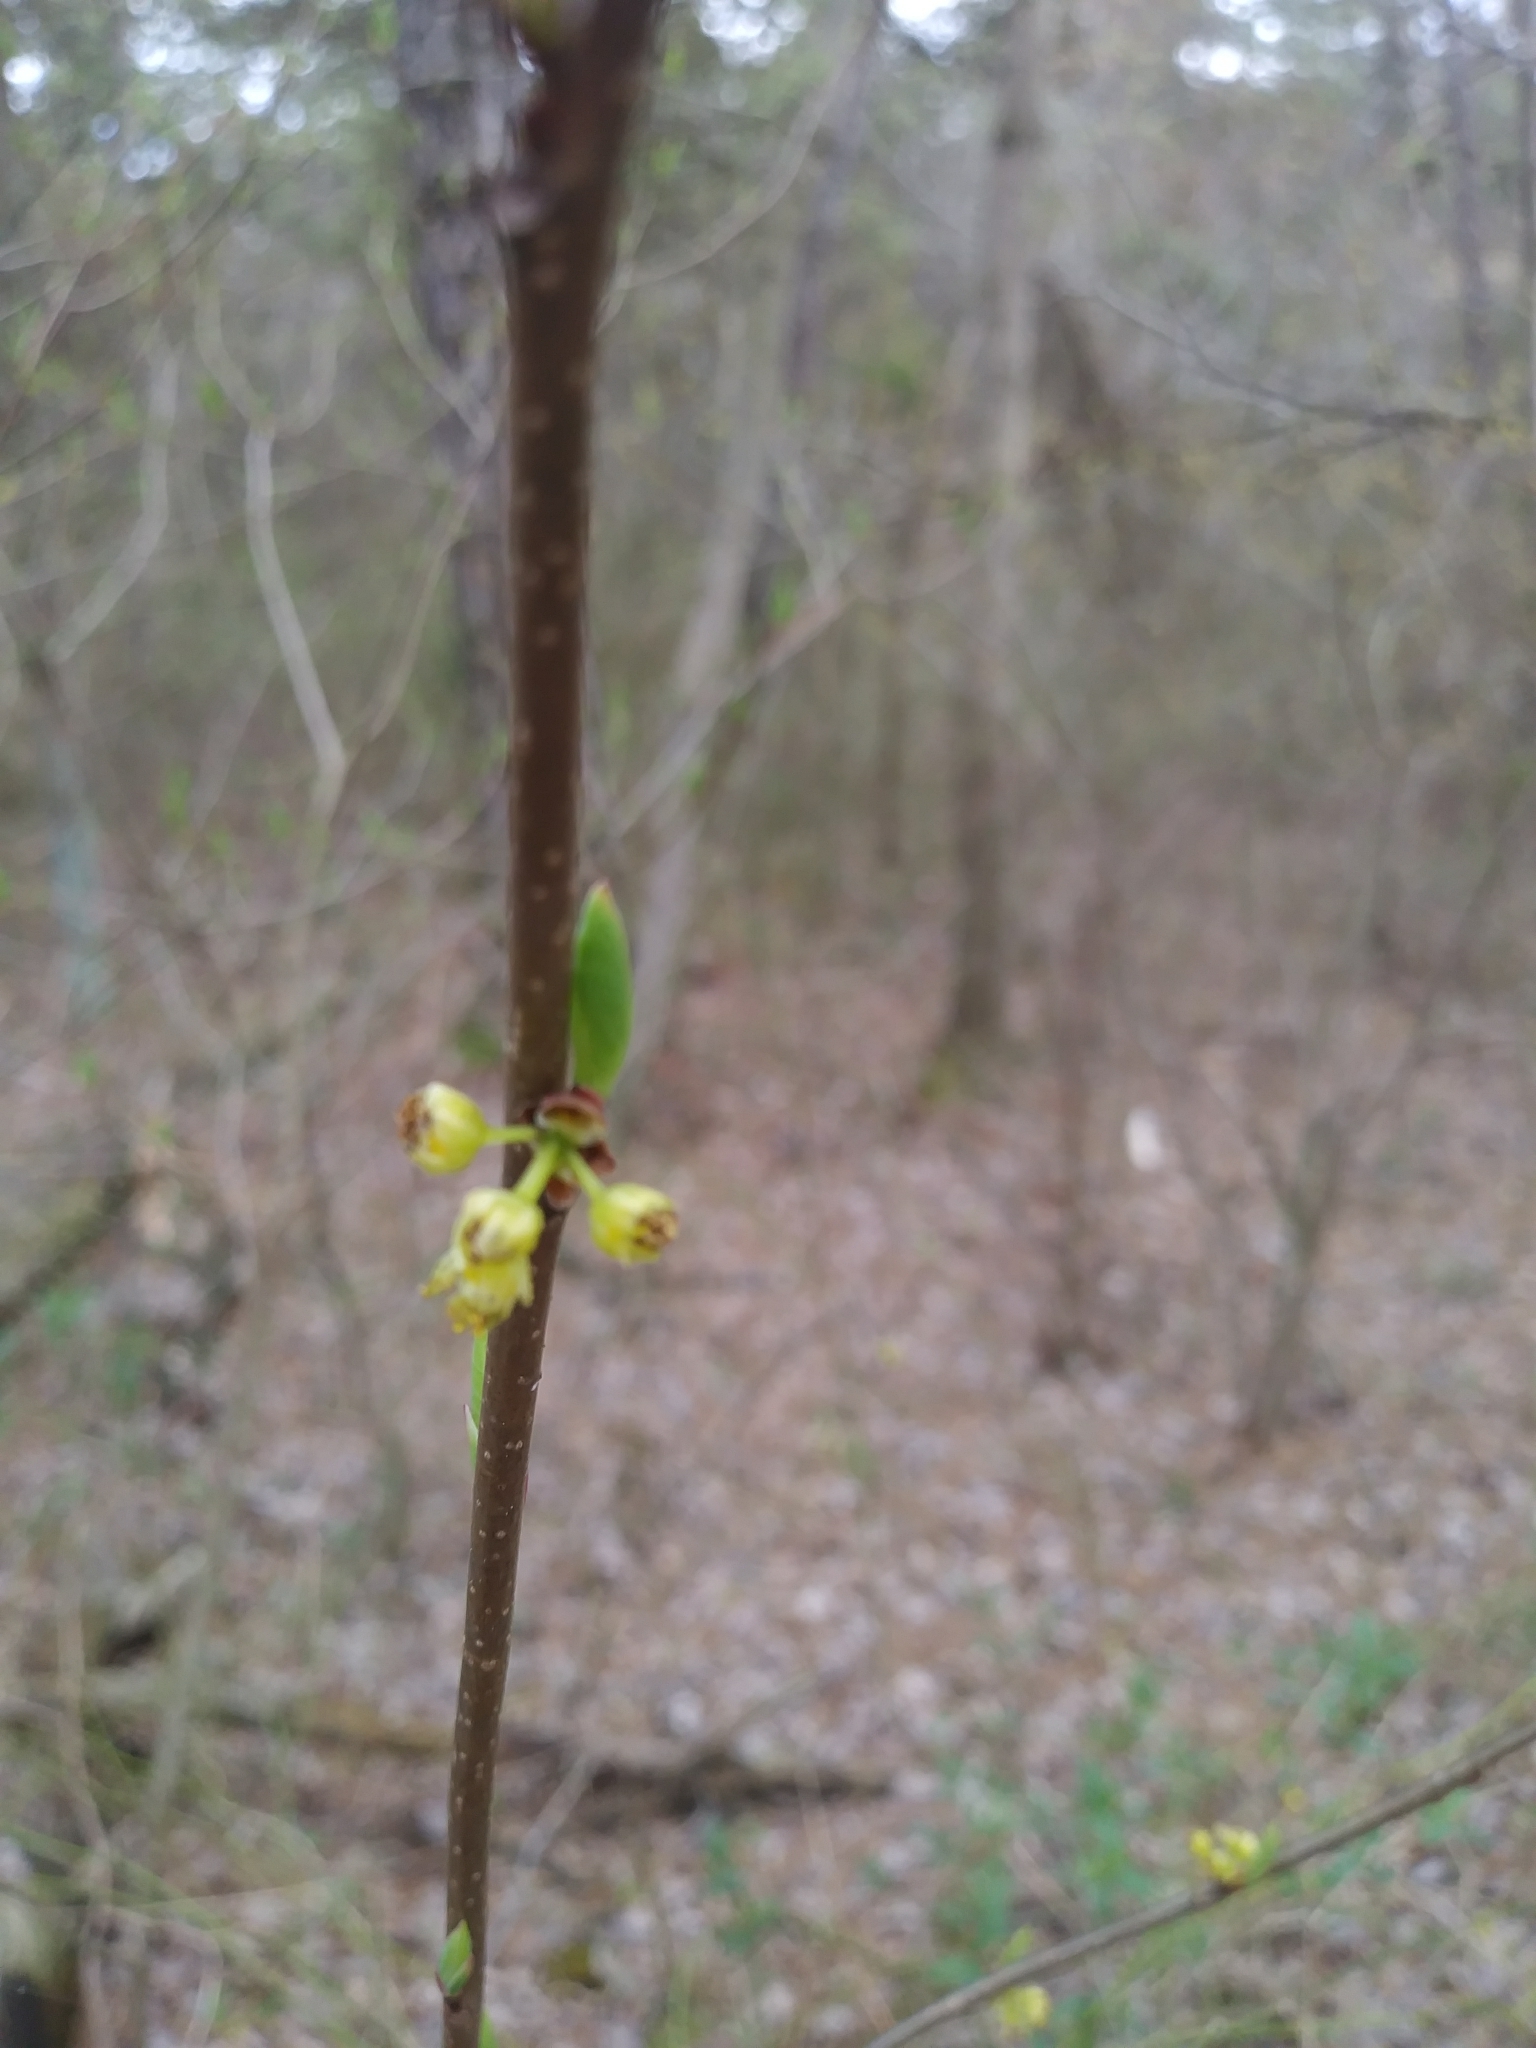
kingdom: Plantae
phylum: Tracheophyta
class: Magnoliopsida
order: Laurales
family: Lauraceae
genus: Lindera
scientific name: Lindera benzoin
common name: Spicebush
